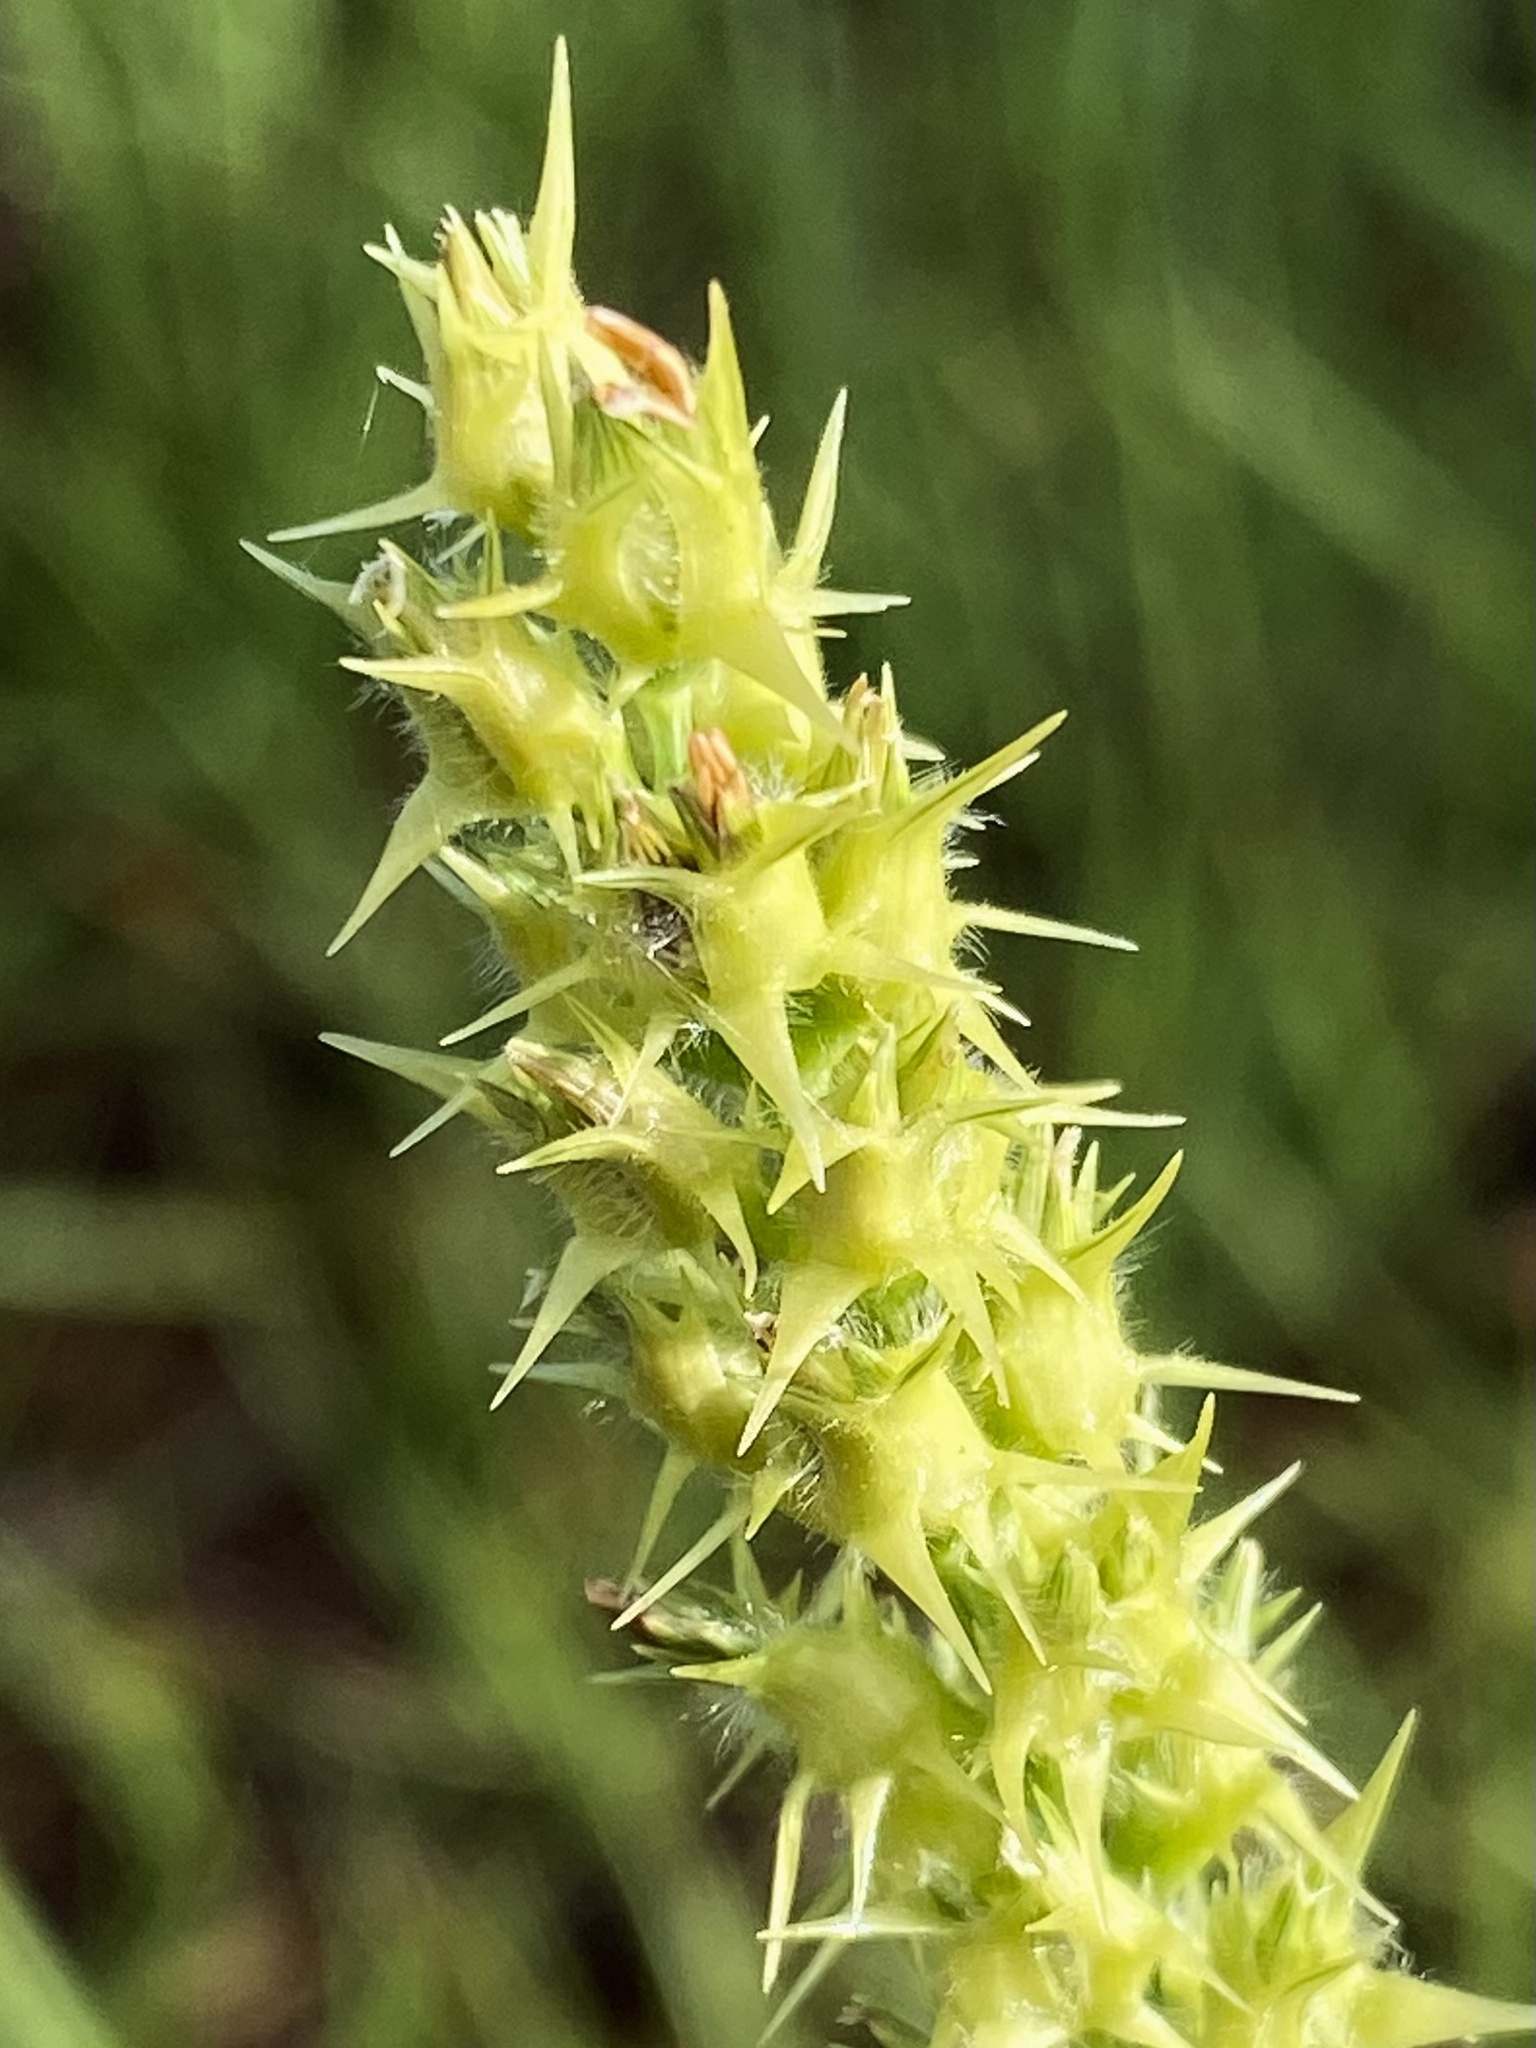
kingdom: Plantae
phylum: Tracheophyta
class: Liliopsida
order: Poales
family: Poaceae
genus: Cenchrus
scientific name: Cenchrus spinifex
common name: Coast sandbur
